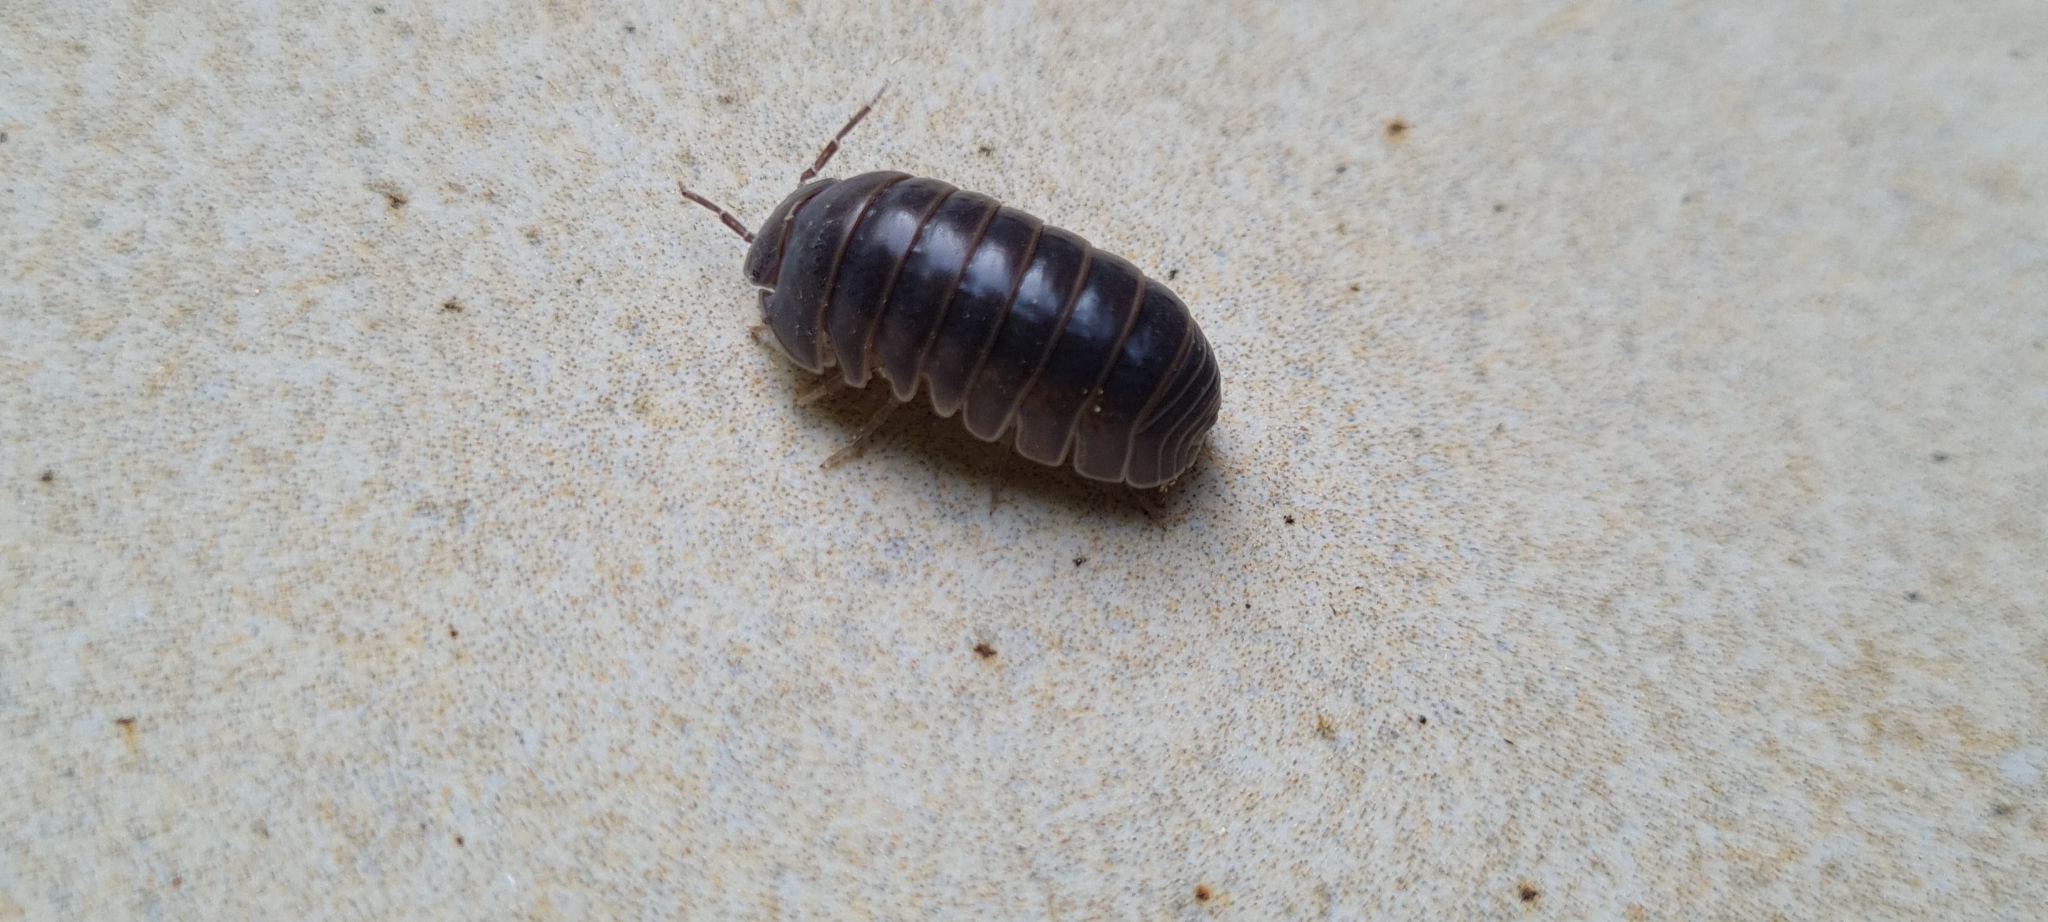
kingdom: Animalia
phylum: Arthropoda
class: Malacostraca
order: Isopoda
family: Armadillidae
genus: Armadillo
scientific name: Armadillo officinalis
